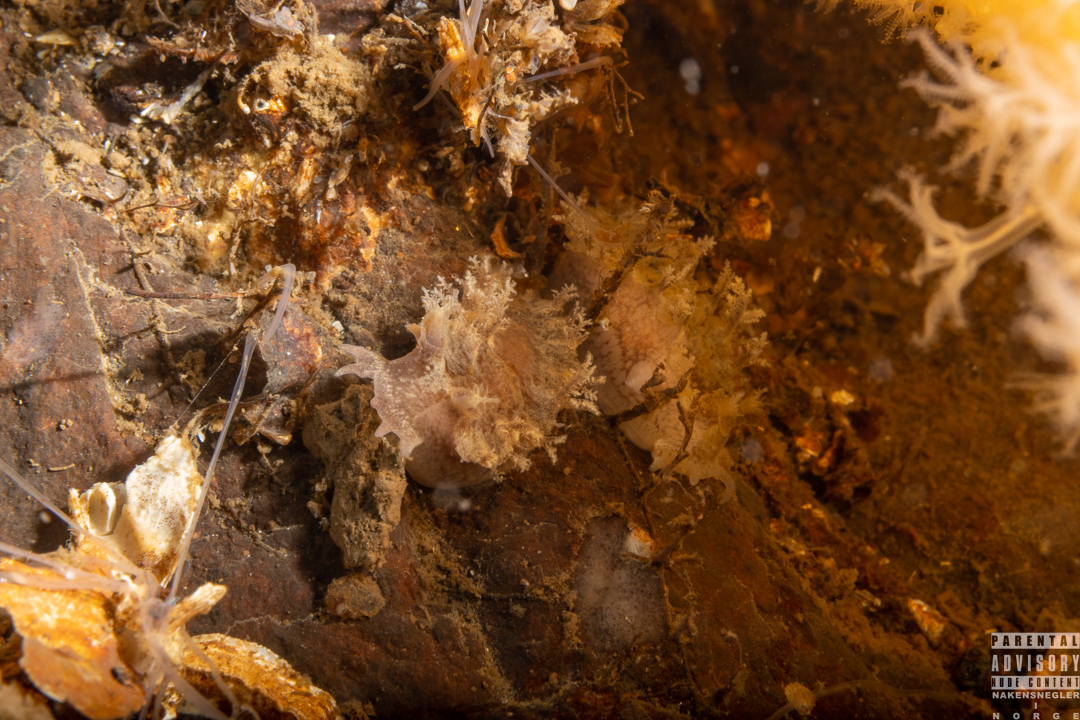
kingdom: Animalia
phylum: Mollusca
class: Gastropoda
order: Nudibranchia
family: Tritoniidae
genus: Duvaucelia
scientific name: Duvaucelia plebeia
